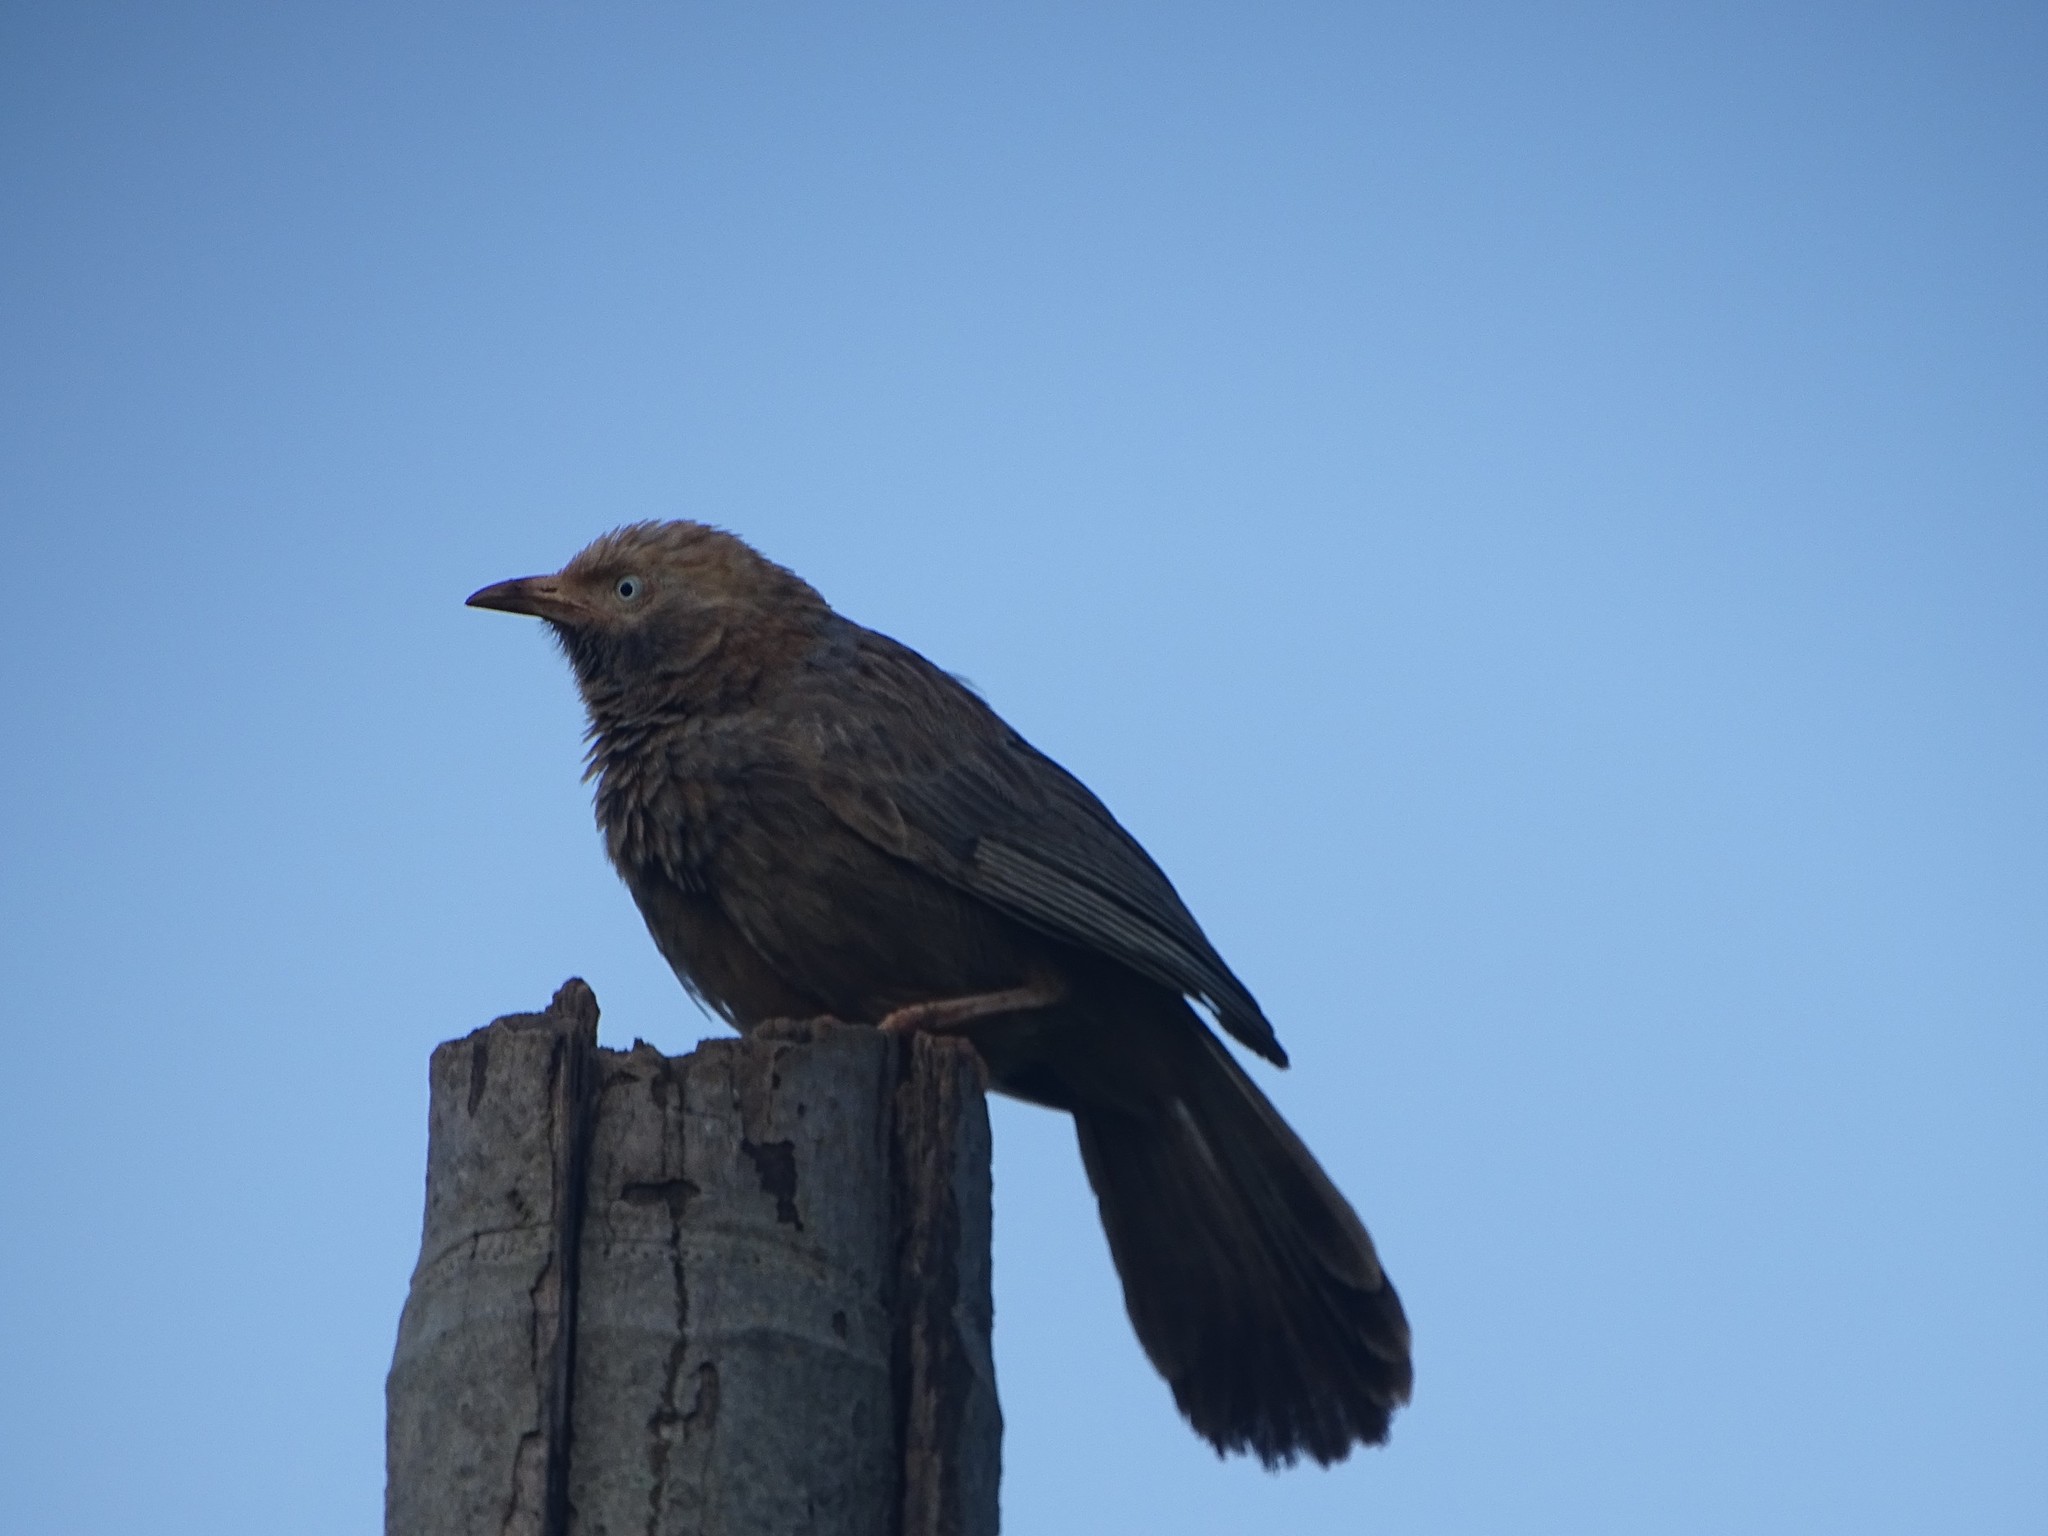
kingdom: Animalia
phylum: Chordata
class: Aves
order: Passeriformes
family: Leiothrichidae
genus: Turdoides
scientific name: Turdoides striata
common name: Jungle babbler
